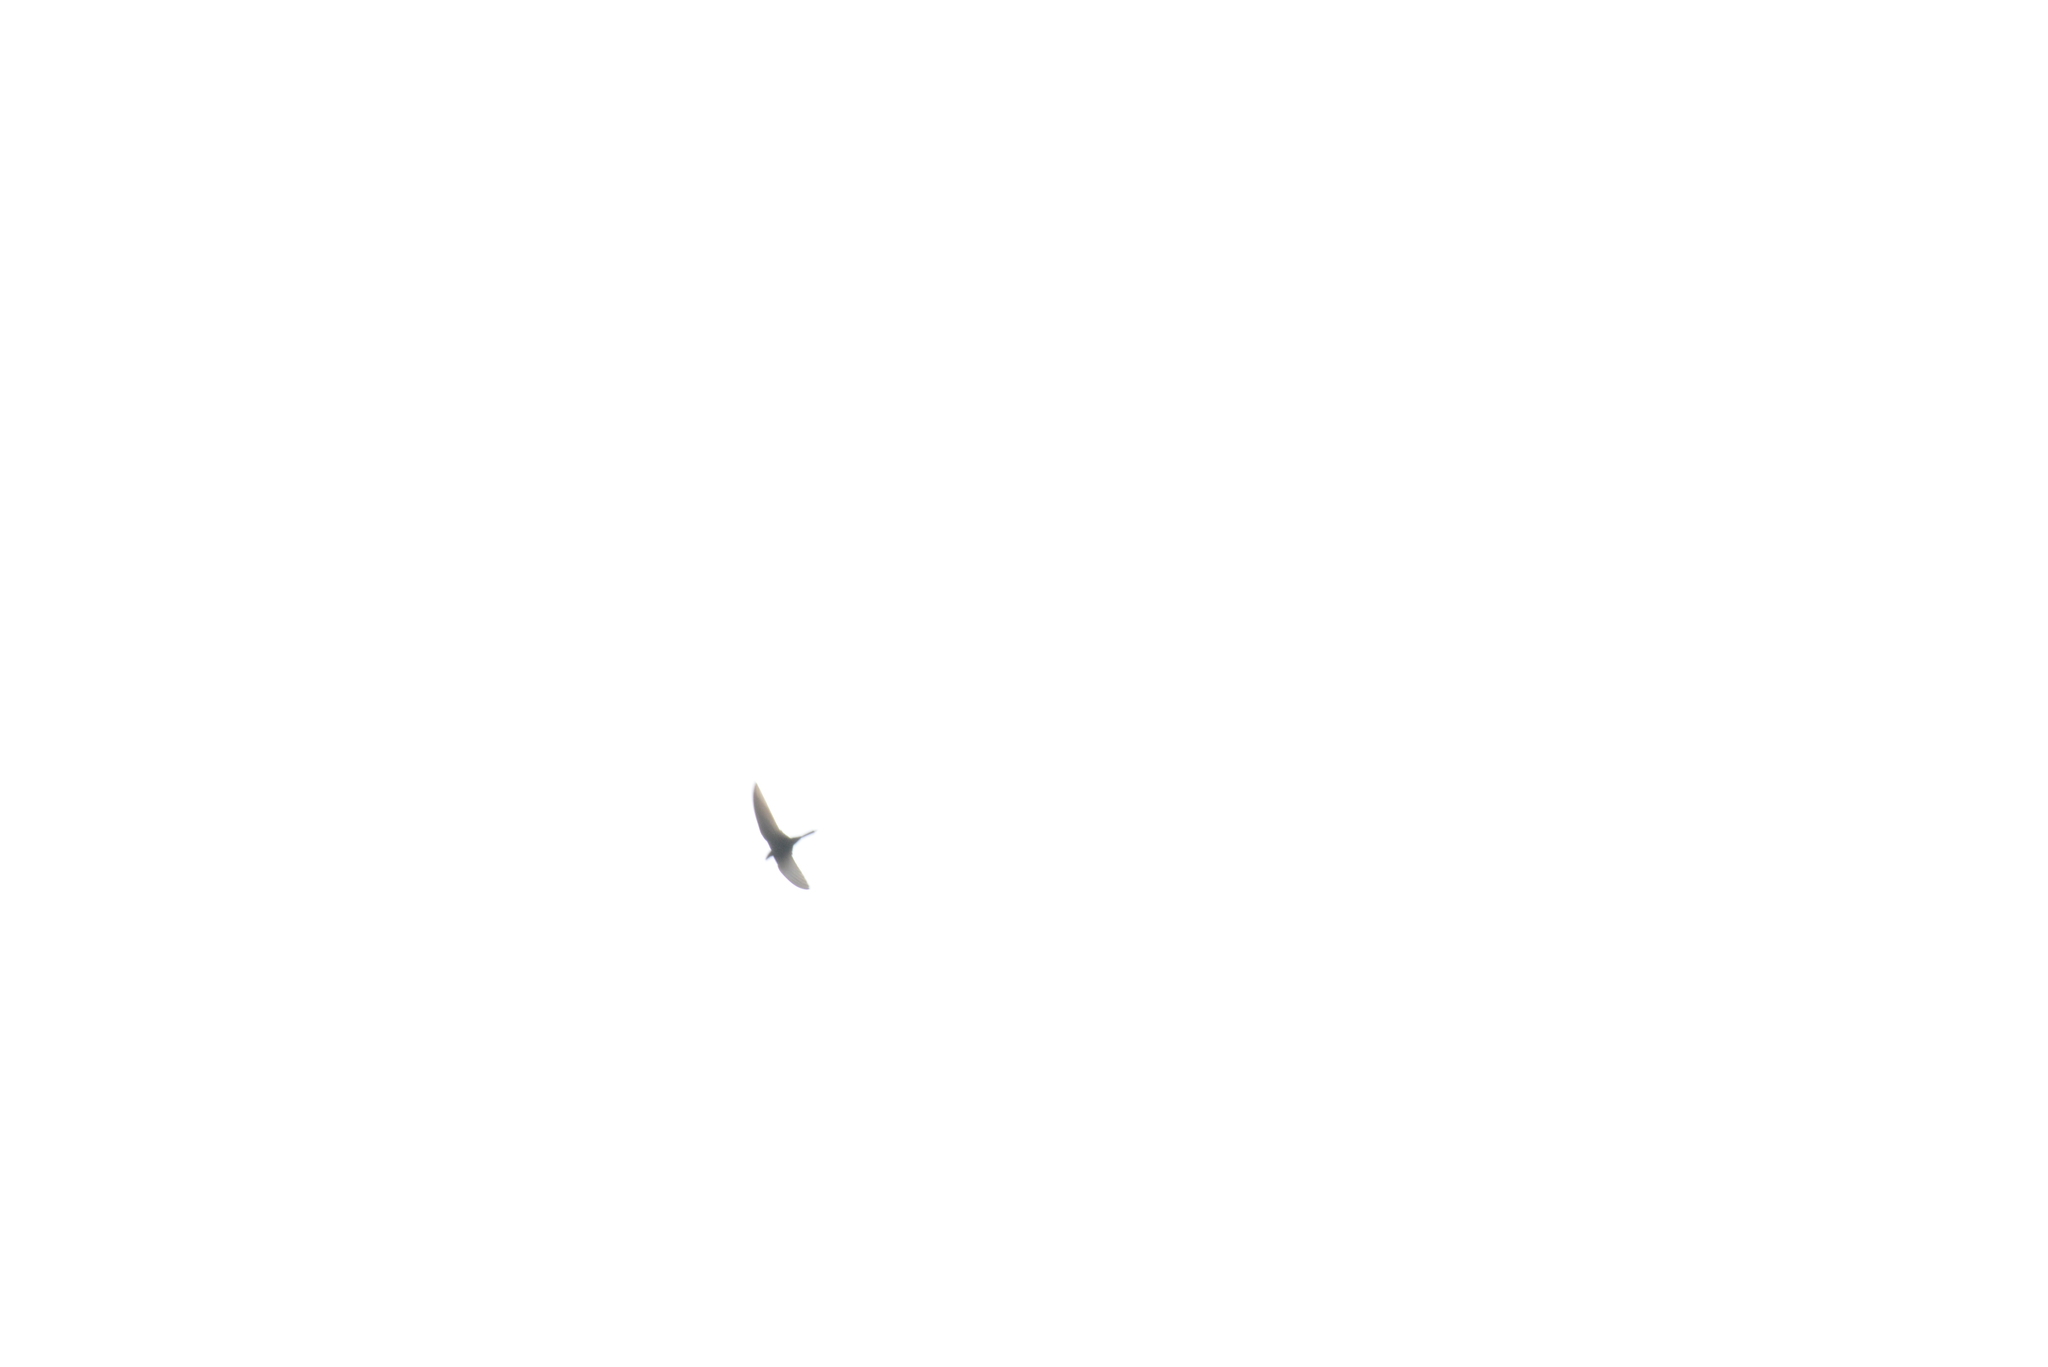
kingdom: Animalia
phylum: Chordata
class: Aves
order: Apodiformes
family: Apodidae
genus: Apus
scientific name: Apus apus
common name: Common swift
